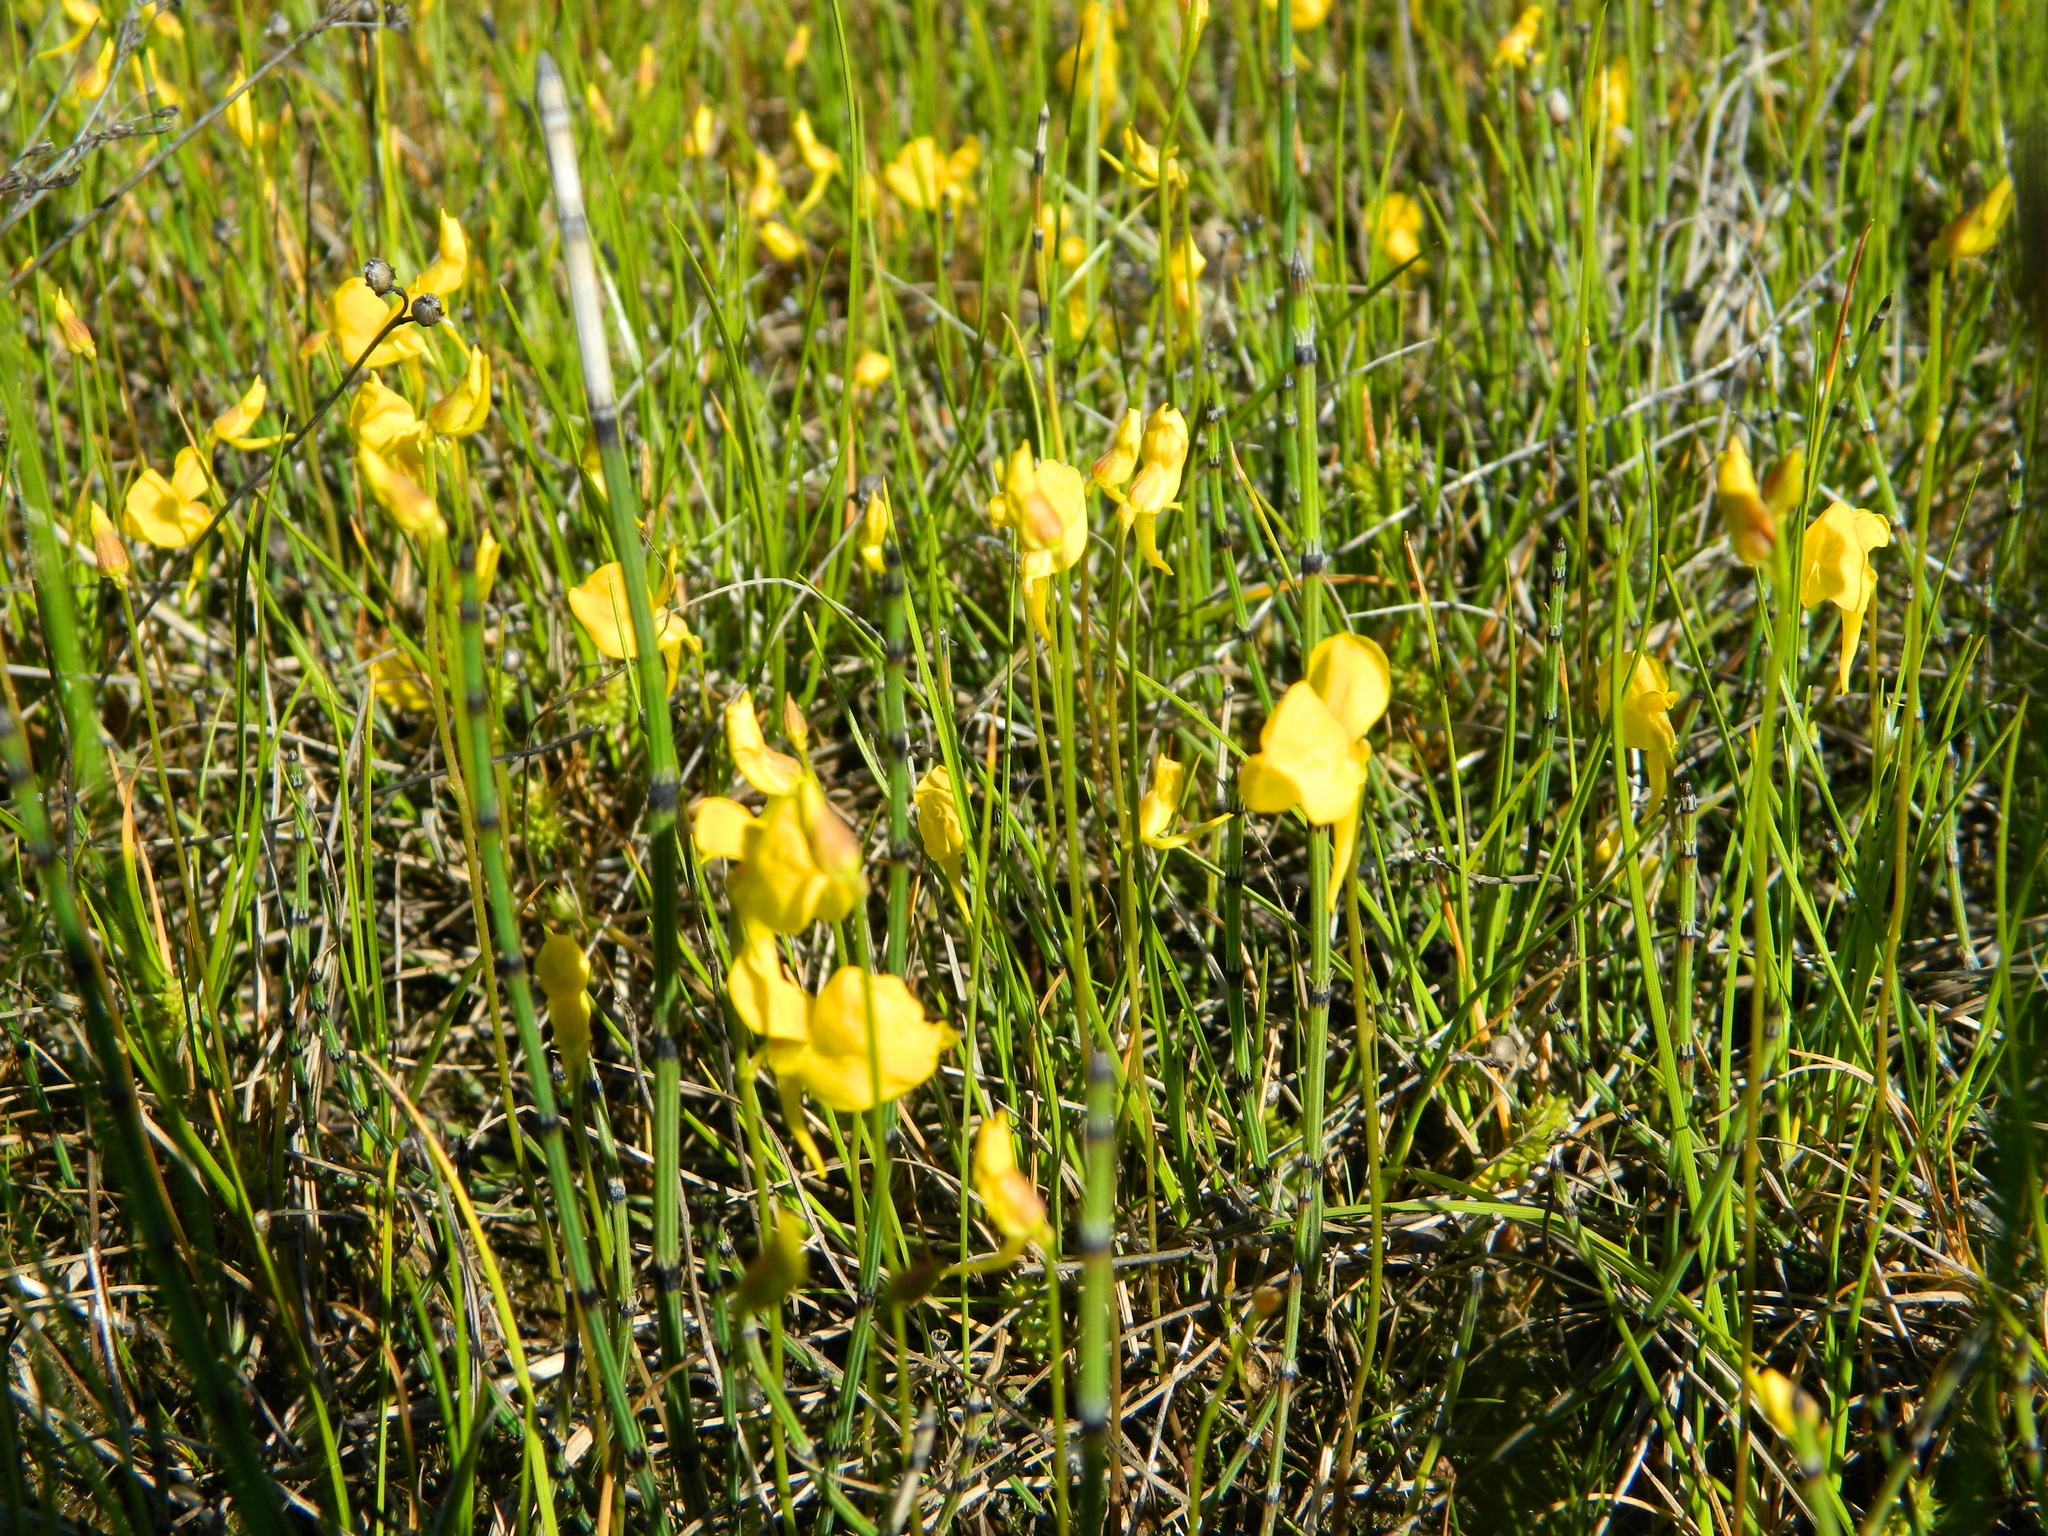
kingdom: Plantae
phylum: Tracheophyta
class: Magnoliopsida
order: Lamiales
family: Lentibulariaceae
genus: Utricularia
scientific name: Utricularia cornuta
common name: Horned bladderwort
